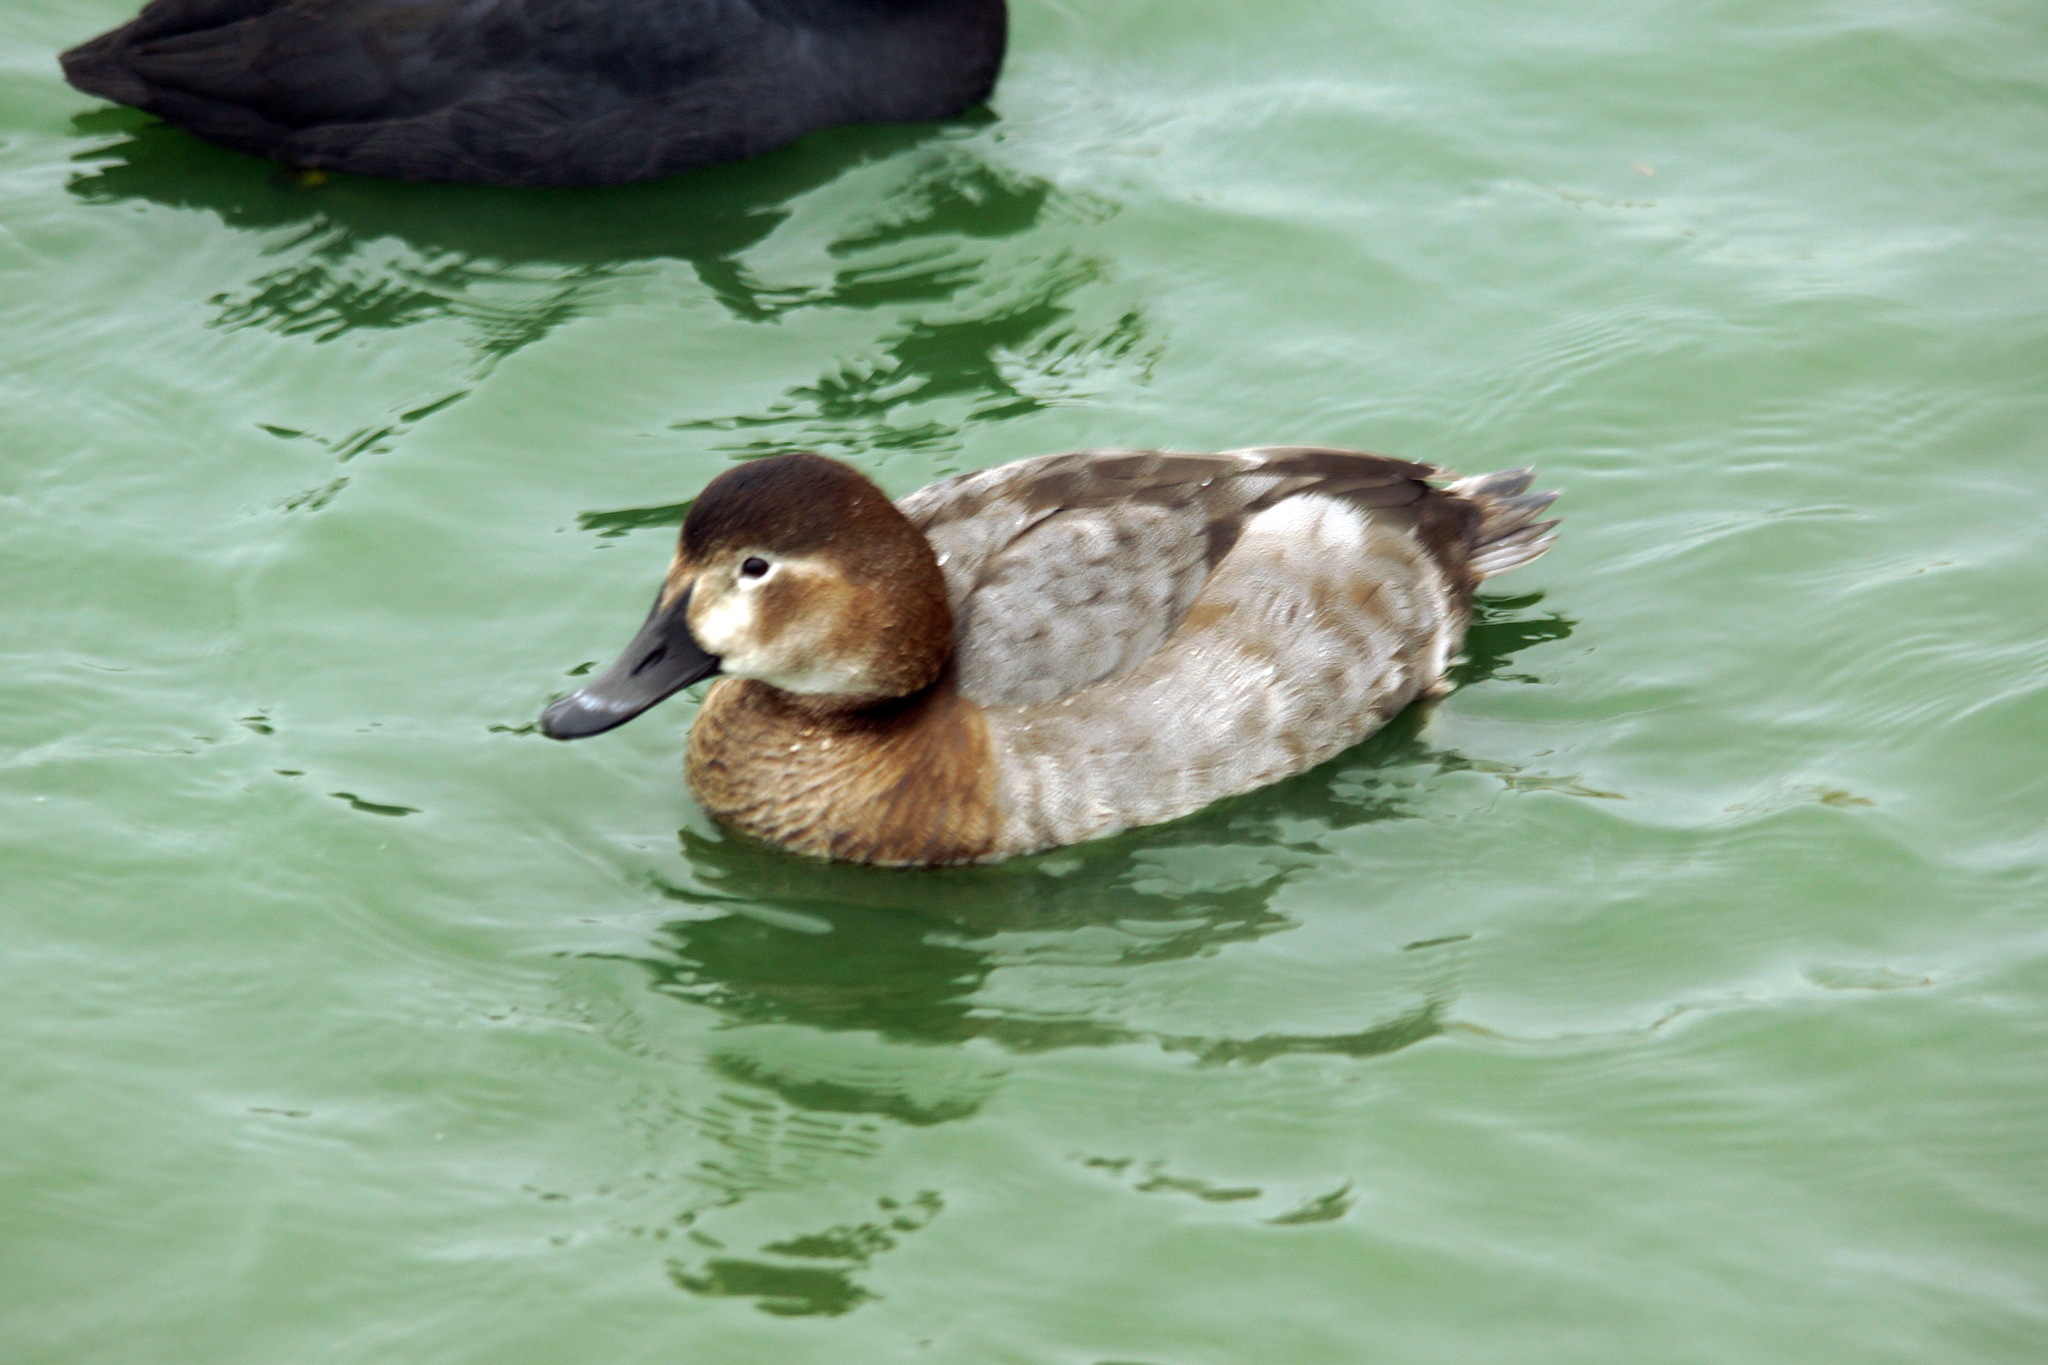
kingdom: Animalia
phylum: Chordata
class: Aves
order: Anseriformes
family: Anatidae
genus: Aythya
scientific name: Aythya ferina
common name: Common pochard
